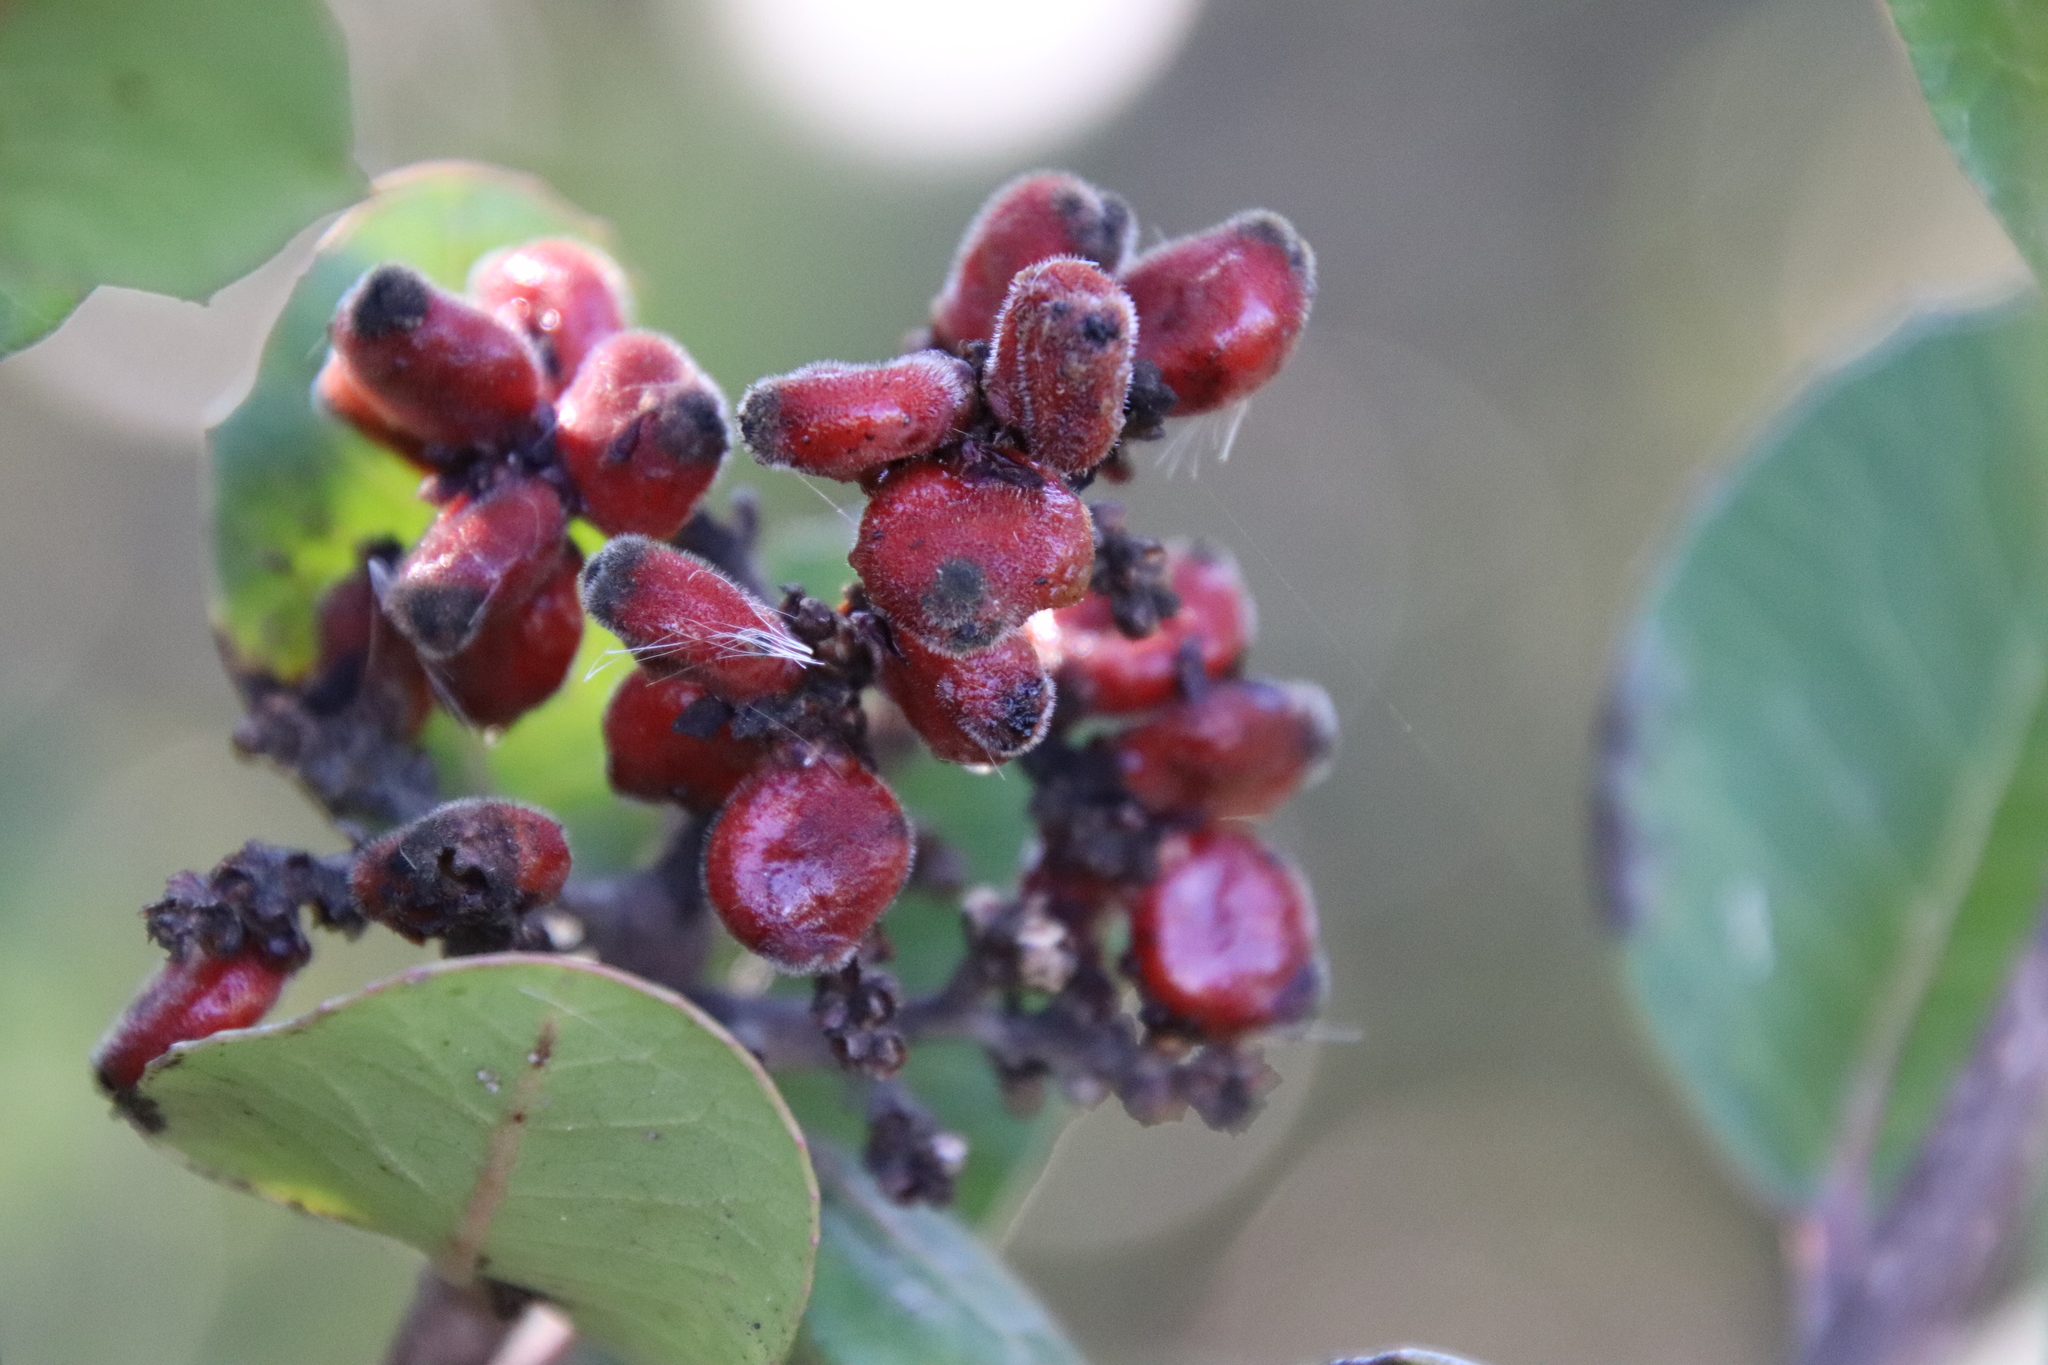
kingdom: Plantae
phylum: Tracheophyta
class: Magnoliopsida
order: Sapindales
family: Anacardiaceae
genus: Rhus
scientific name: Rhus integrifolia
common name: Lemonade sumac
